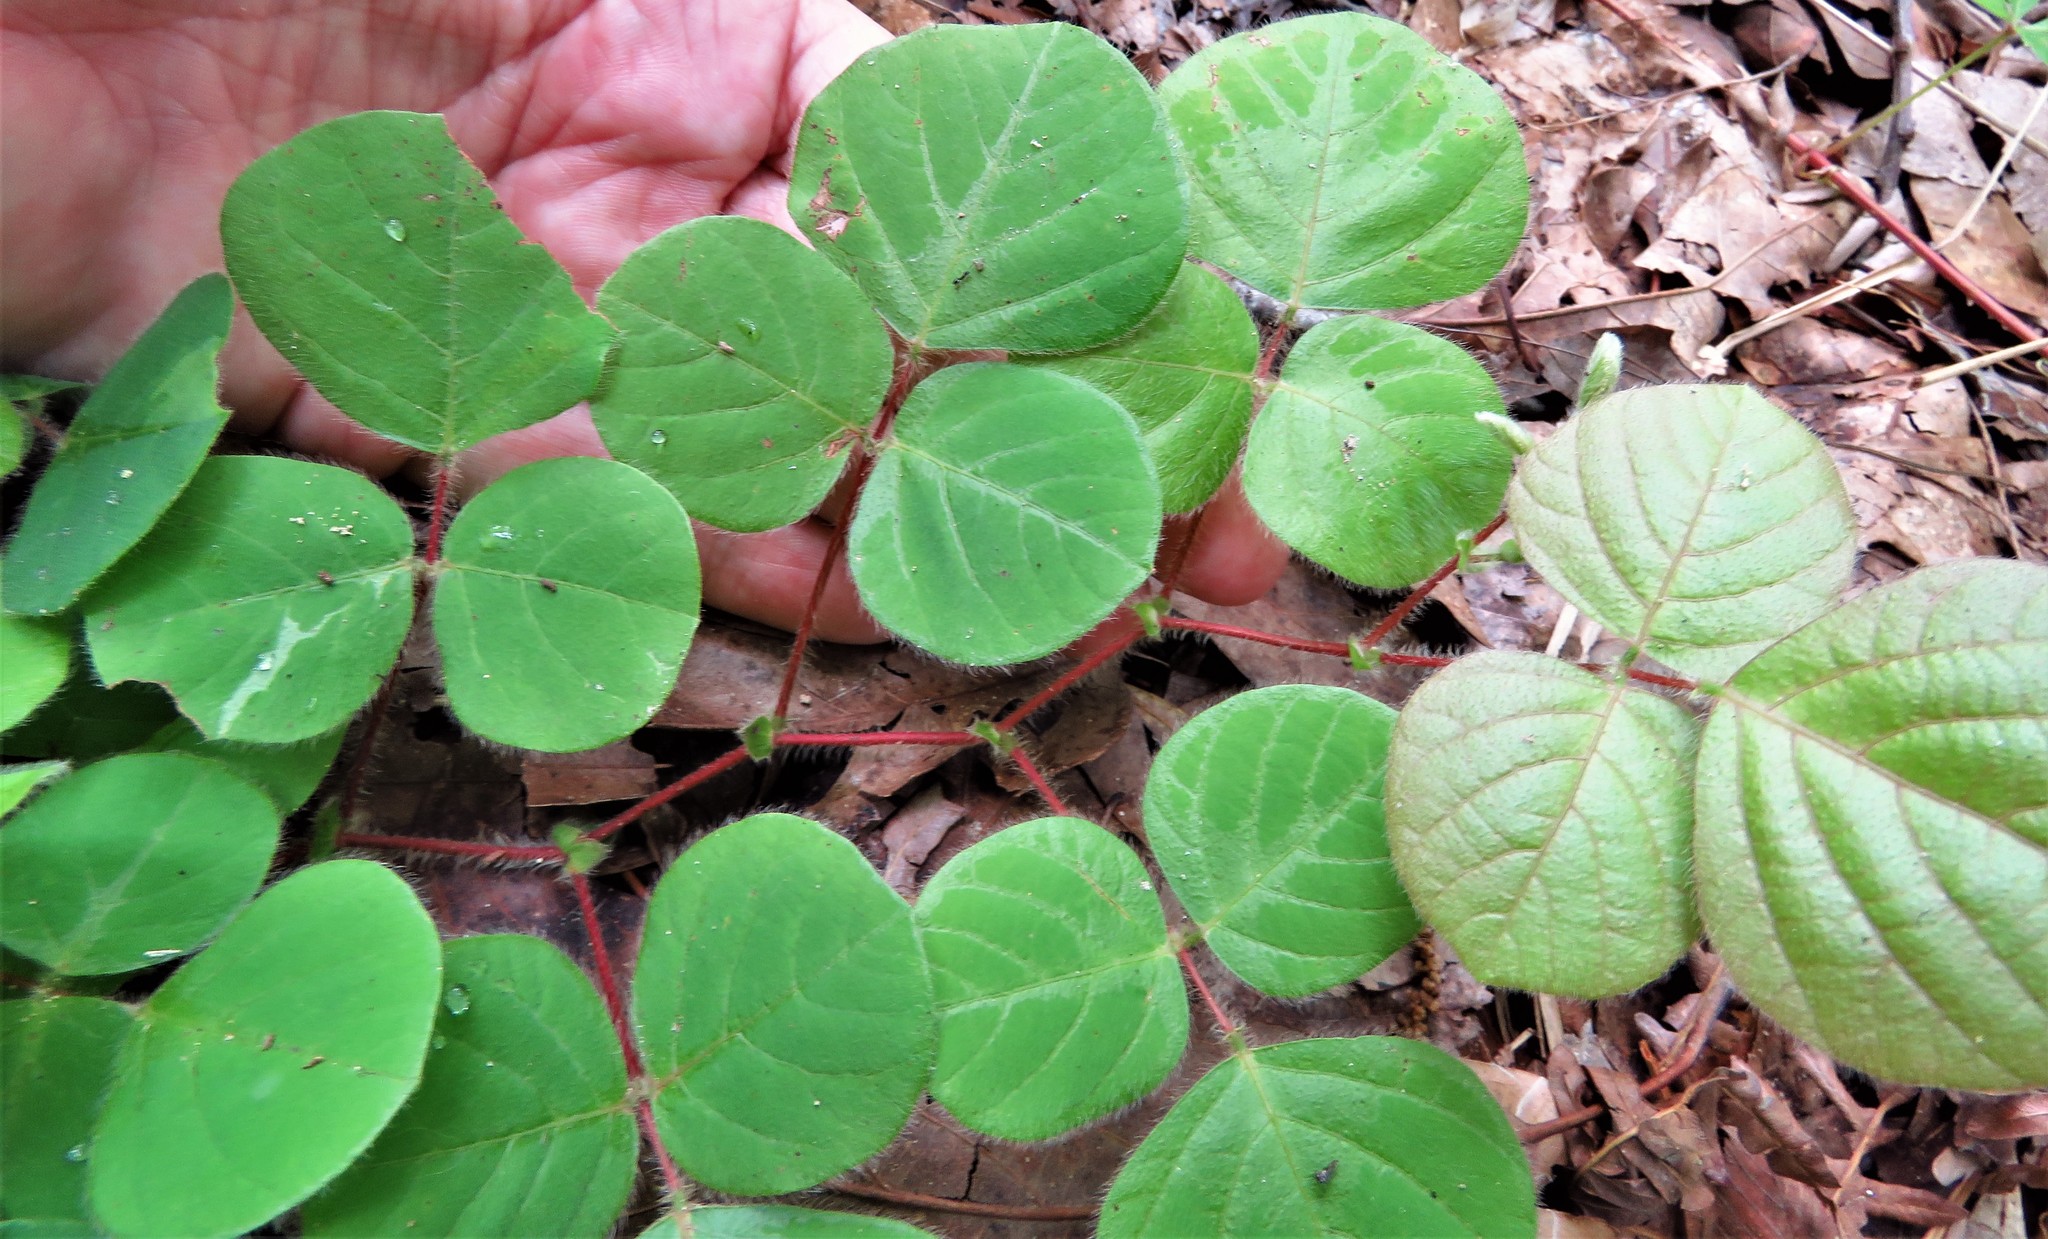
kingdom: Plantae
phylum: Tracheophyta
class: Magnoliopsida
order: Fabales
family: Fabaceae
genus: Desmodium
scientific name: Desmodium rotundifolium
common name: Dollarleaf
